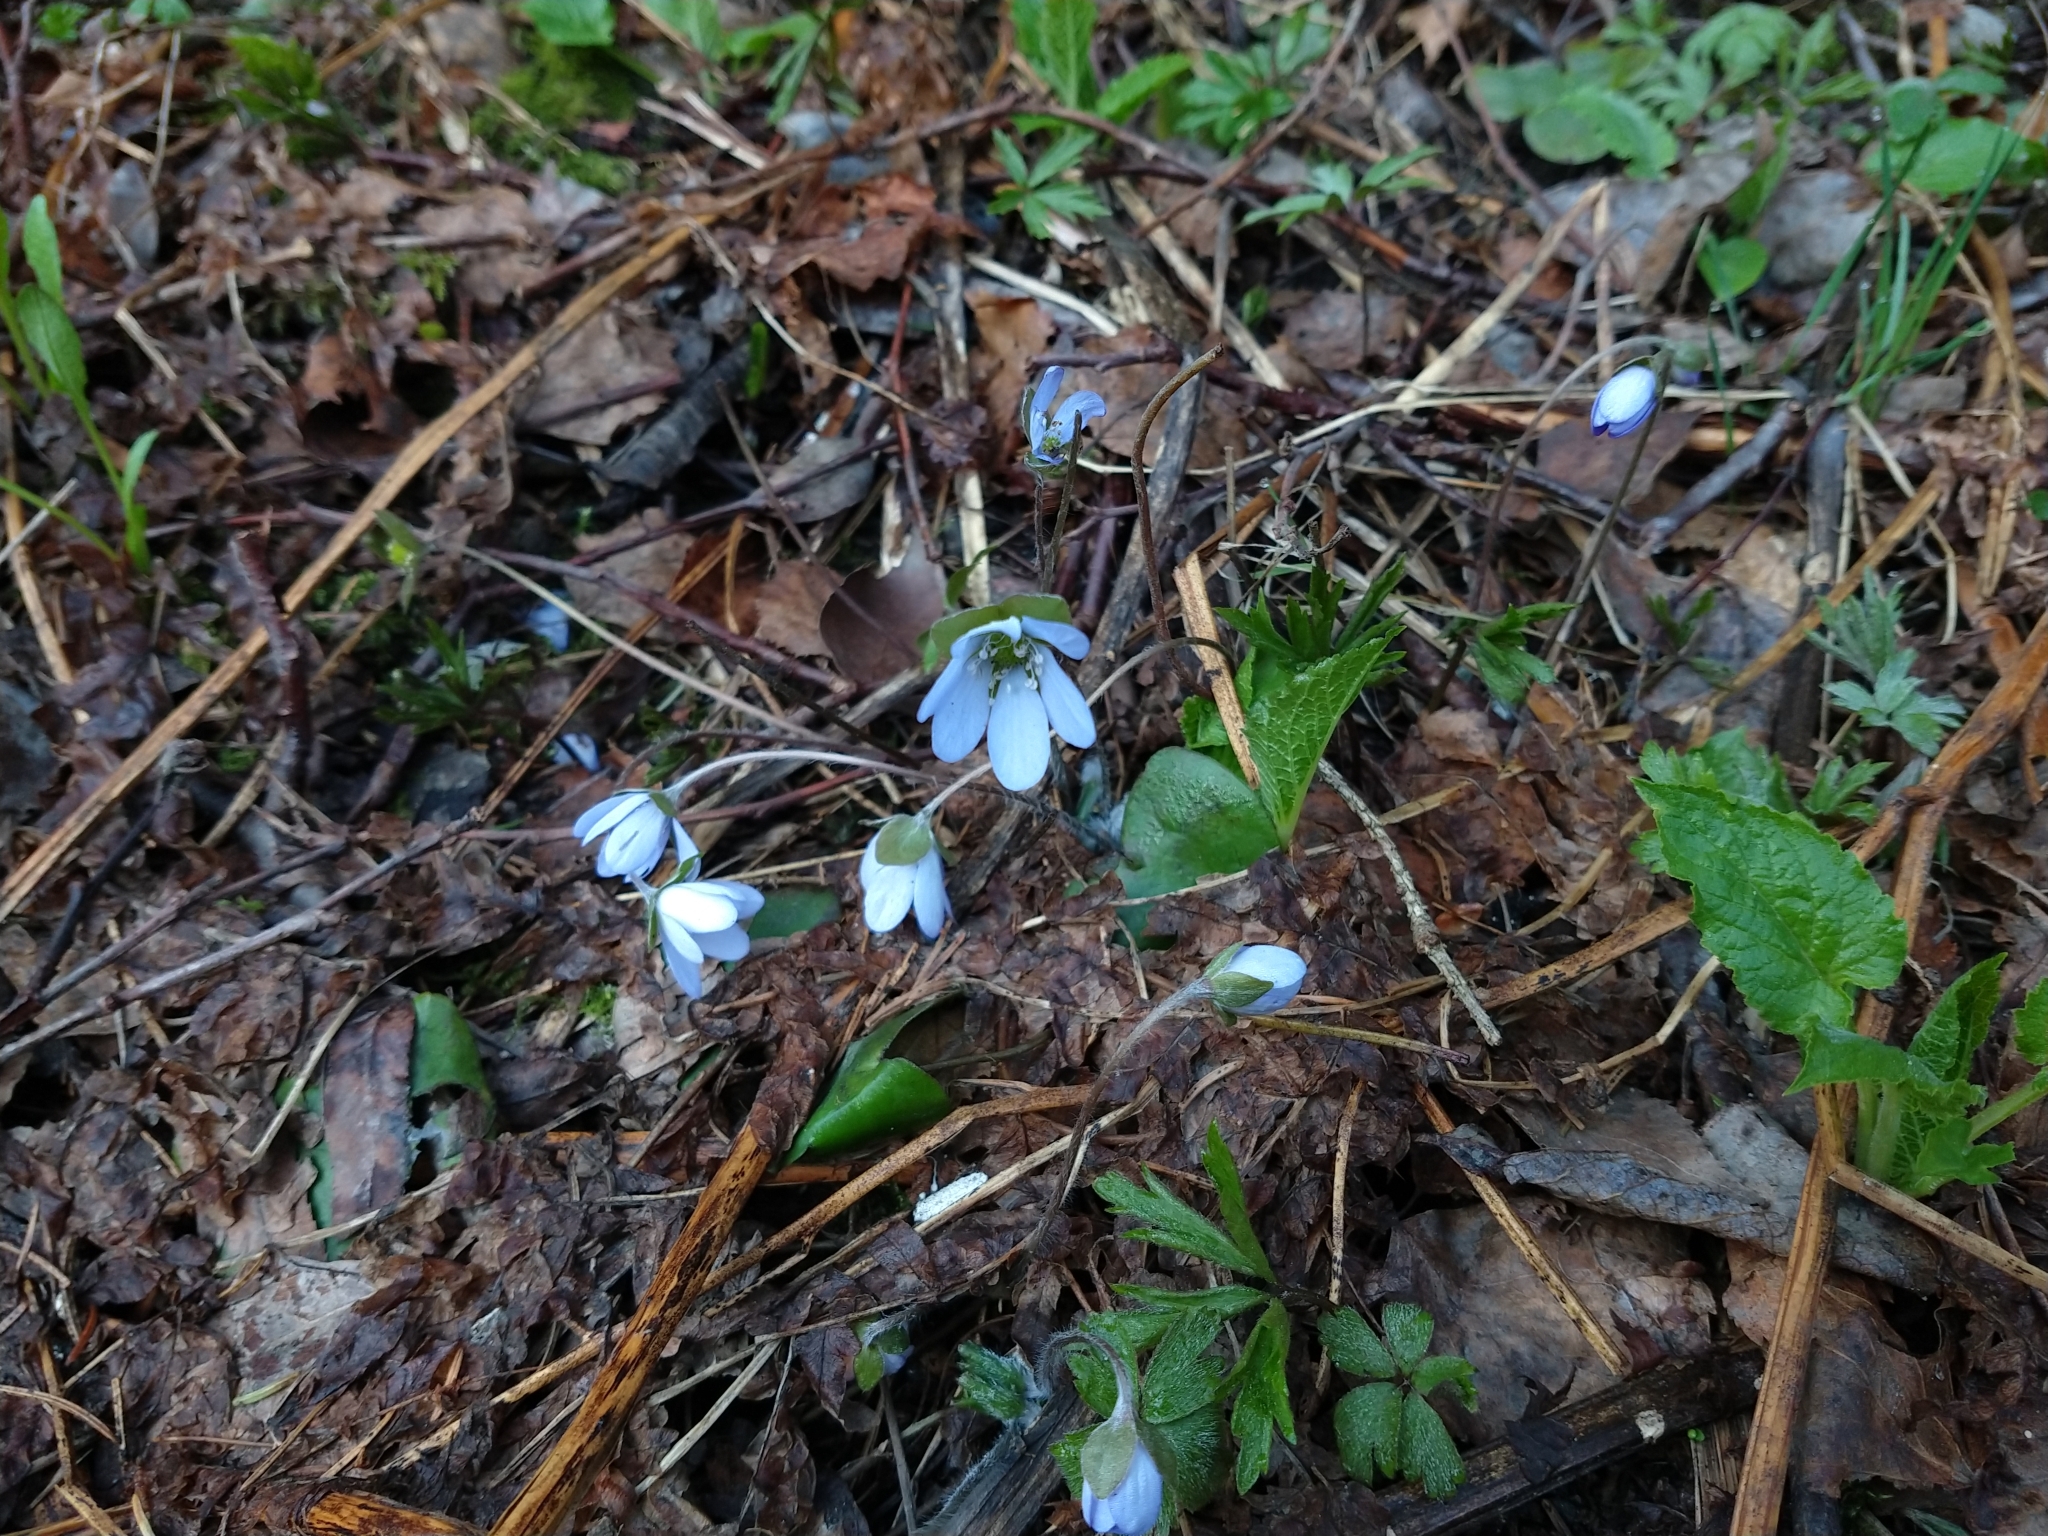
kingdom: Plantae
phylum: Tracheophyta
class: Magnoliopsida
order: Ranunculales
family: Ranunculaceae
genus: Hepatica
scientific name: Hepatica nobilis
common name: Liverleaf
